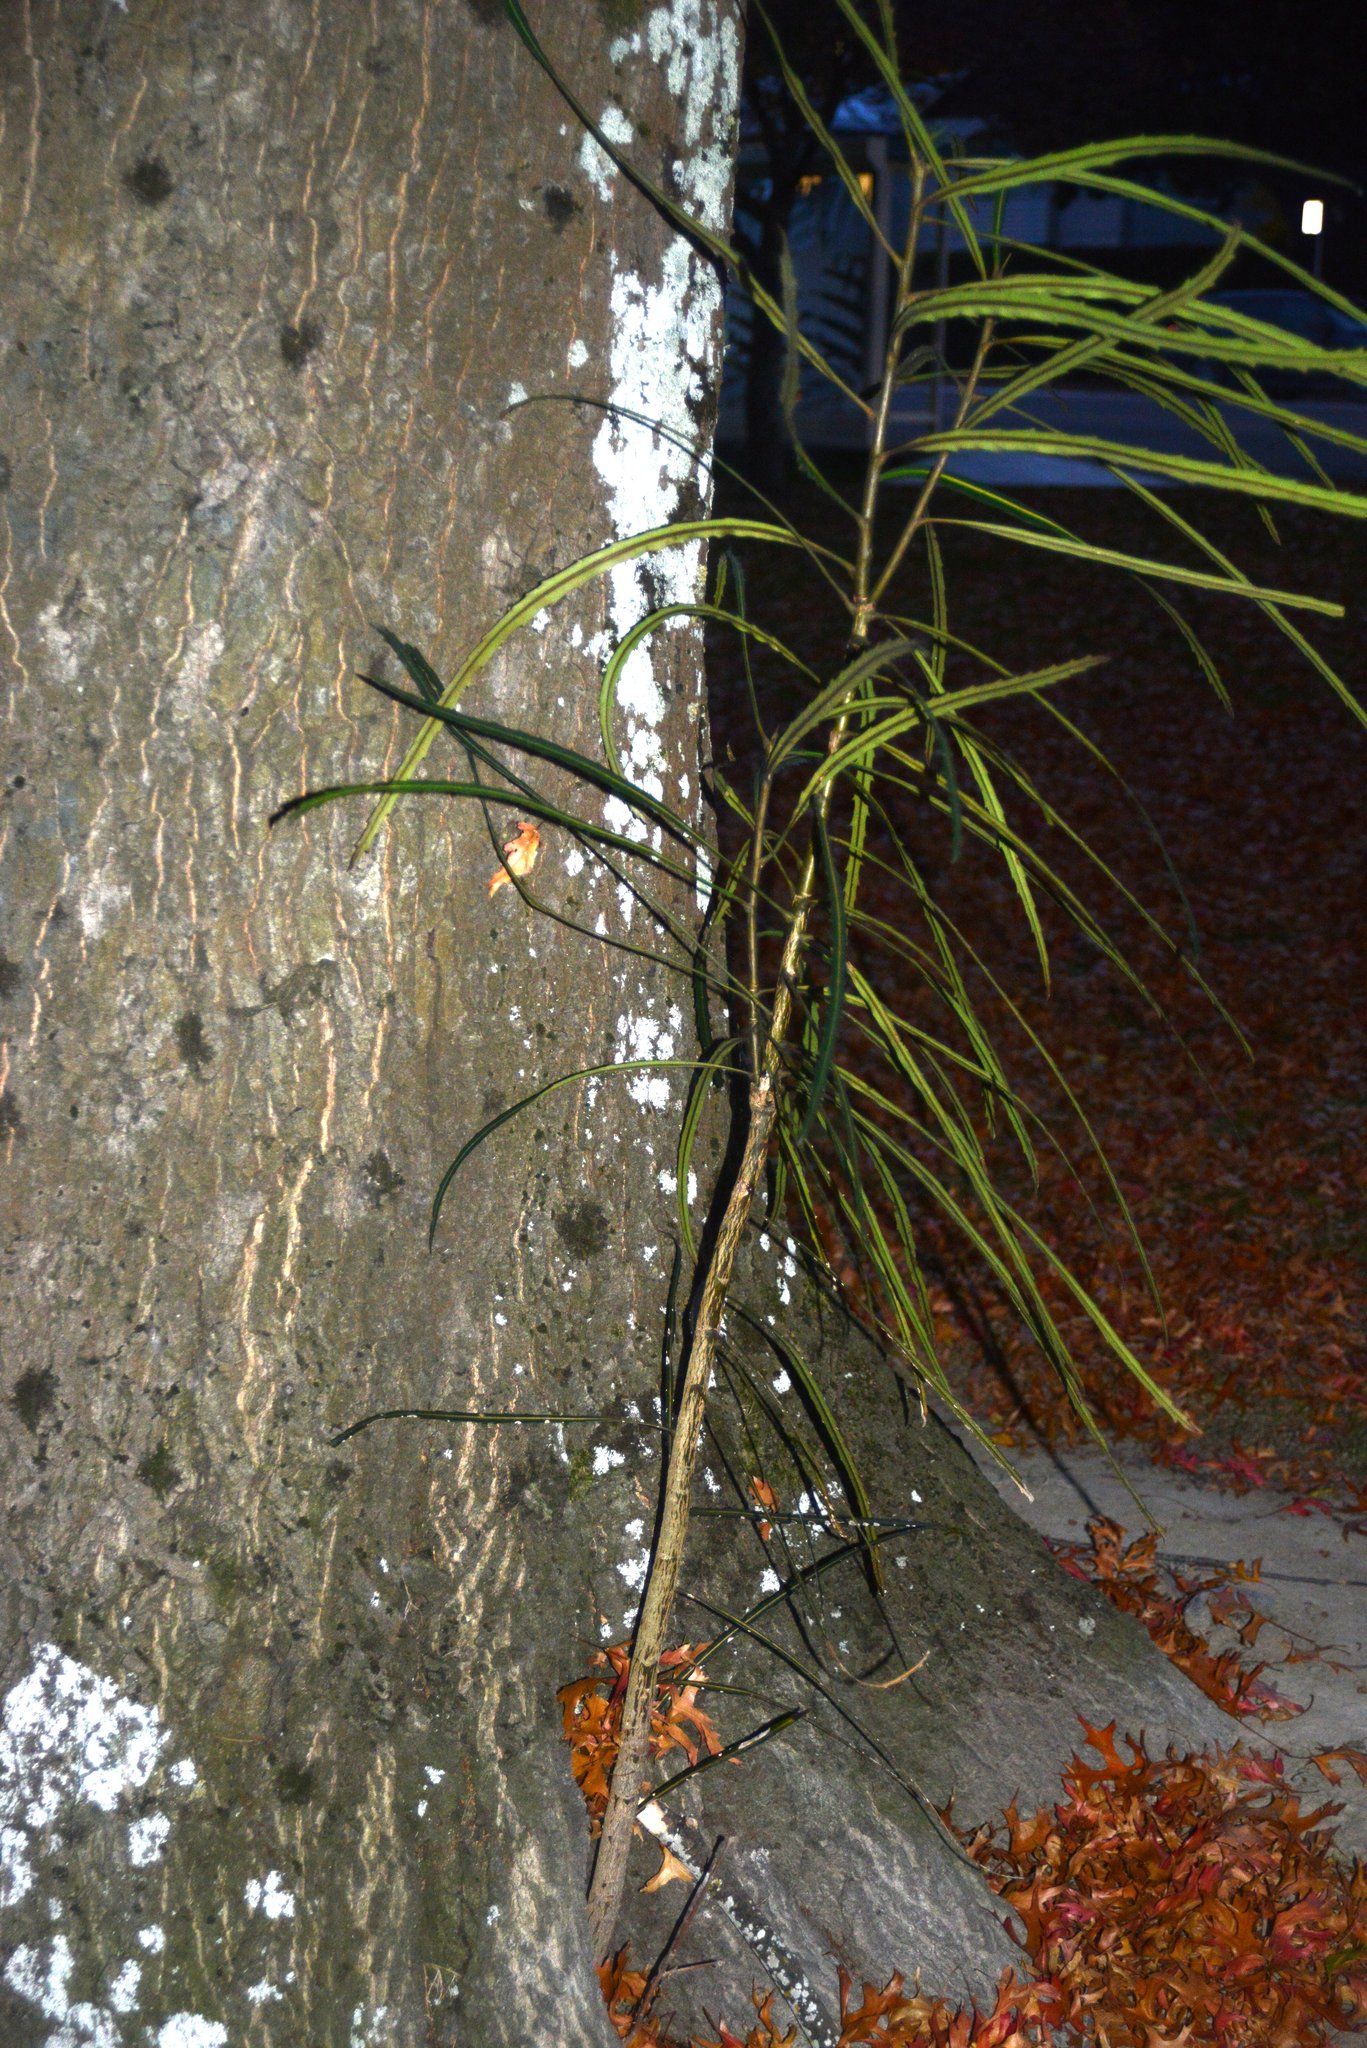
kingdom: Plantae
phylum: Tracheophyta
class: Magnoliopsida
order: Apiales
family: Araliaceae
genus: Pseudopanax
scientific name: Pseudopanax crassifolius
